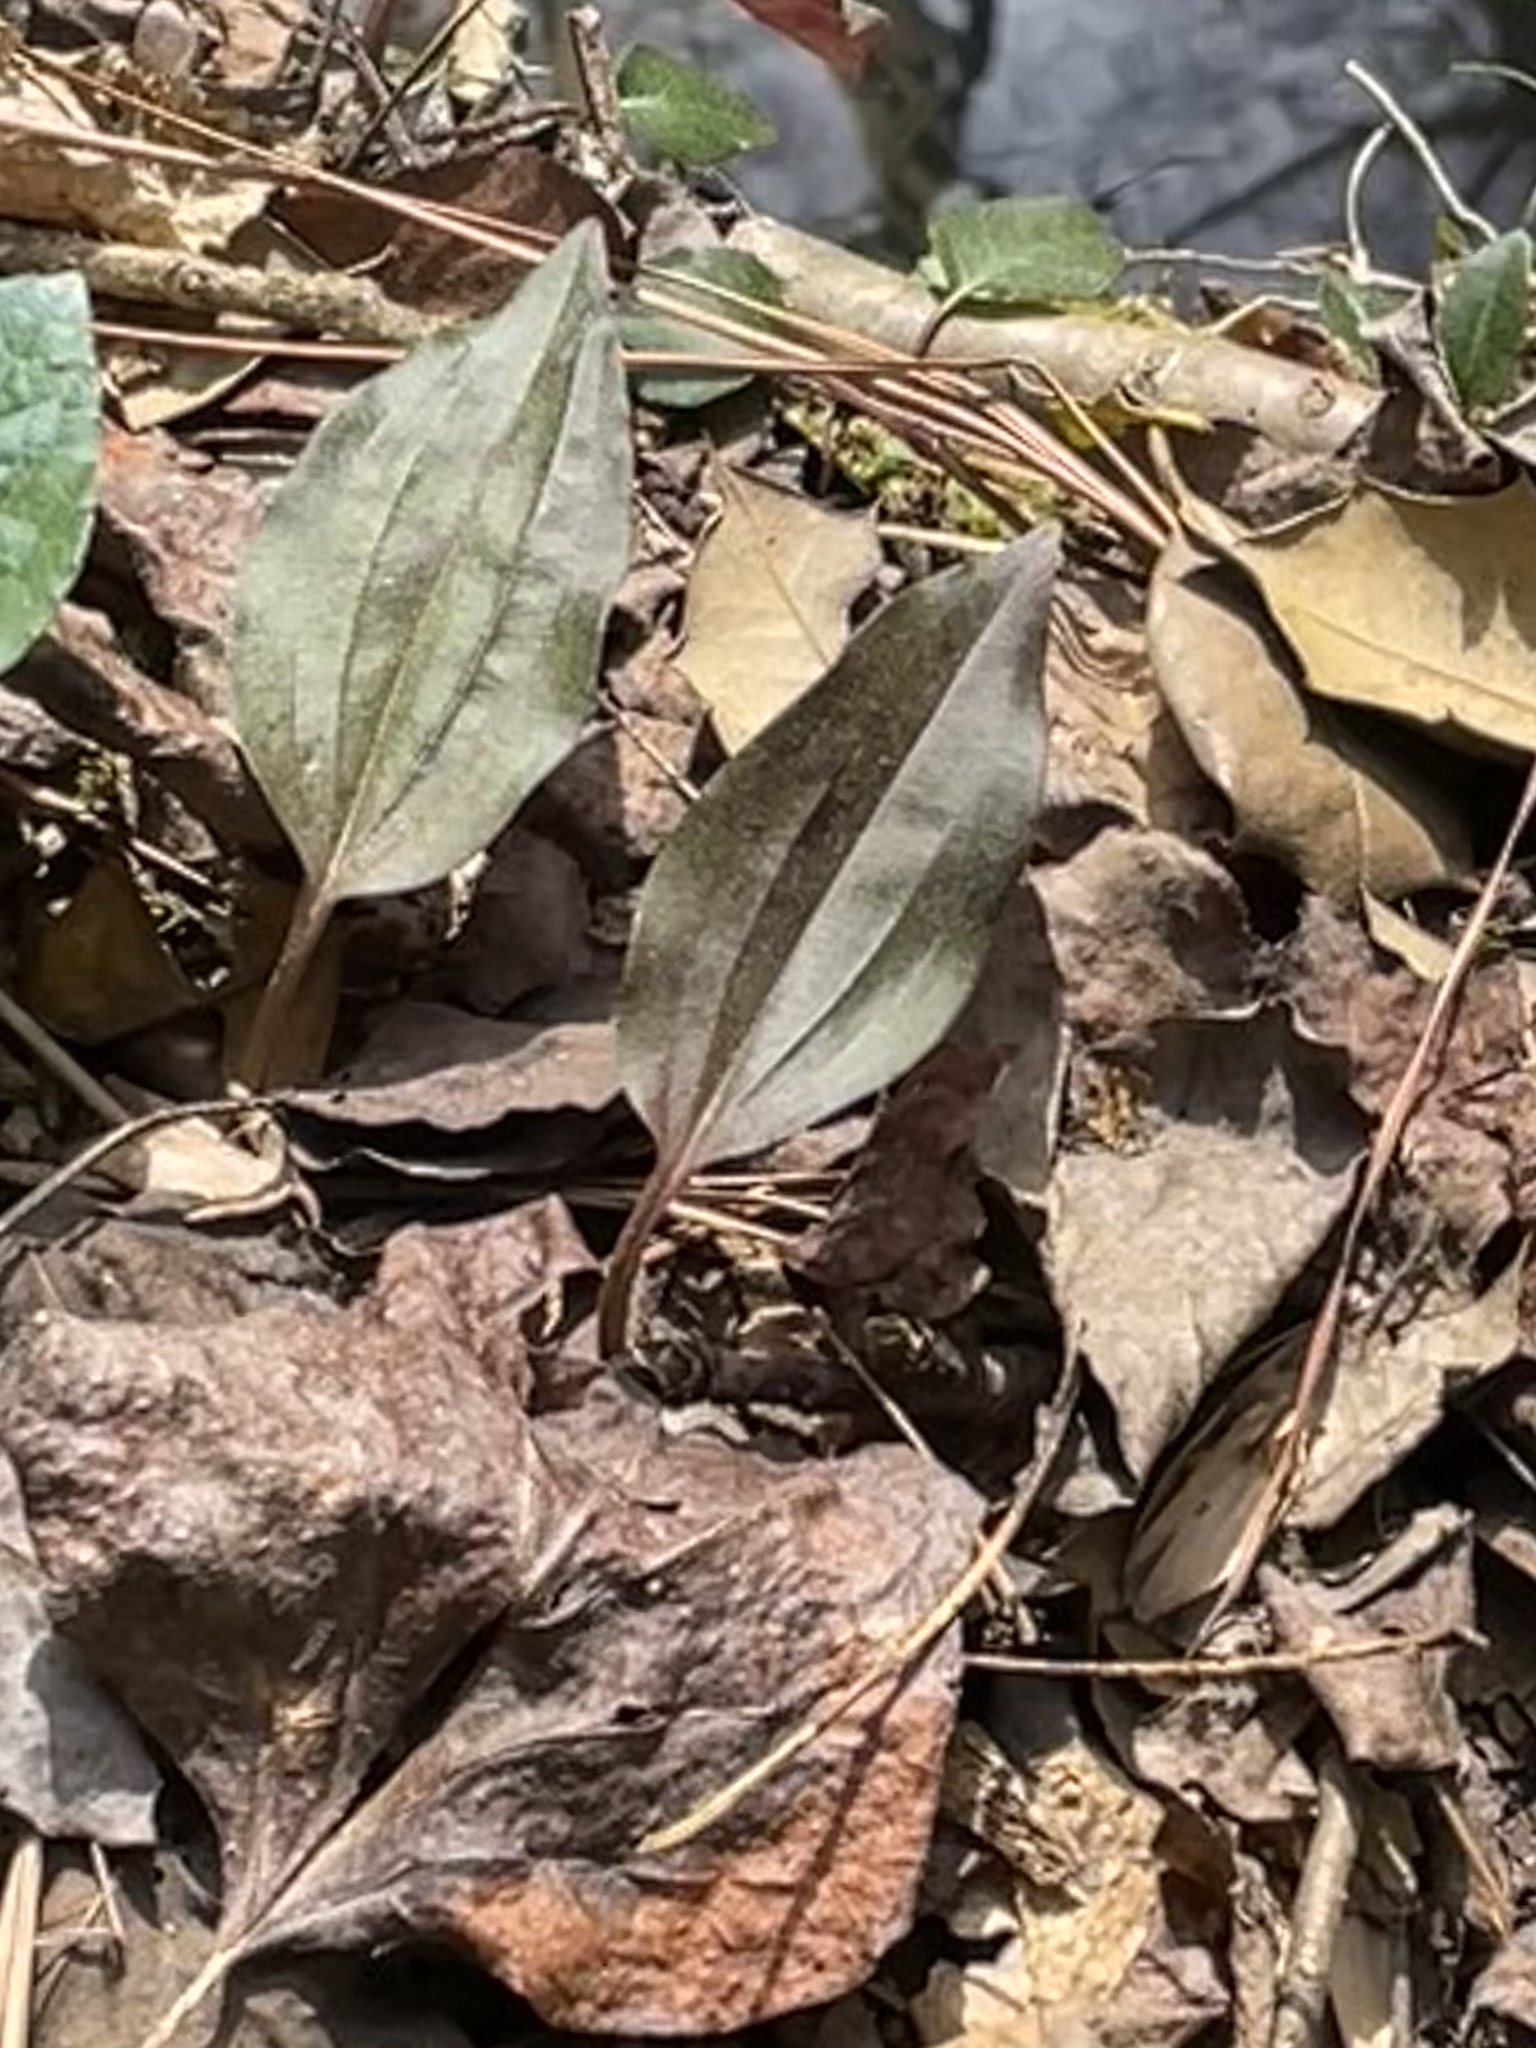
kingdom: Plantae
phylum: Tracheophyta
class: Liliopsida
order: Asparagales
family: Orchidaceae
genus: Tipularia
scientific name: Tipularia discolor
